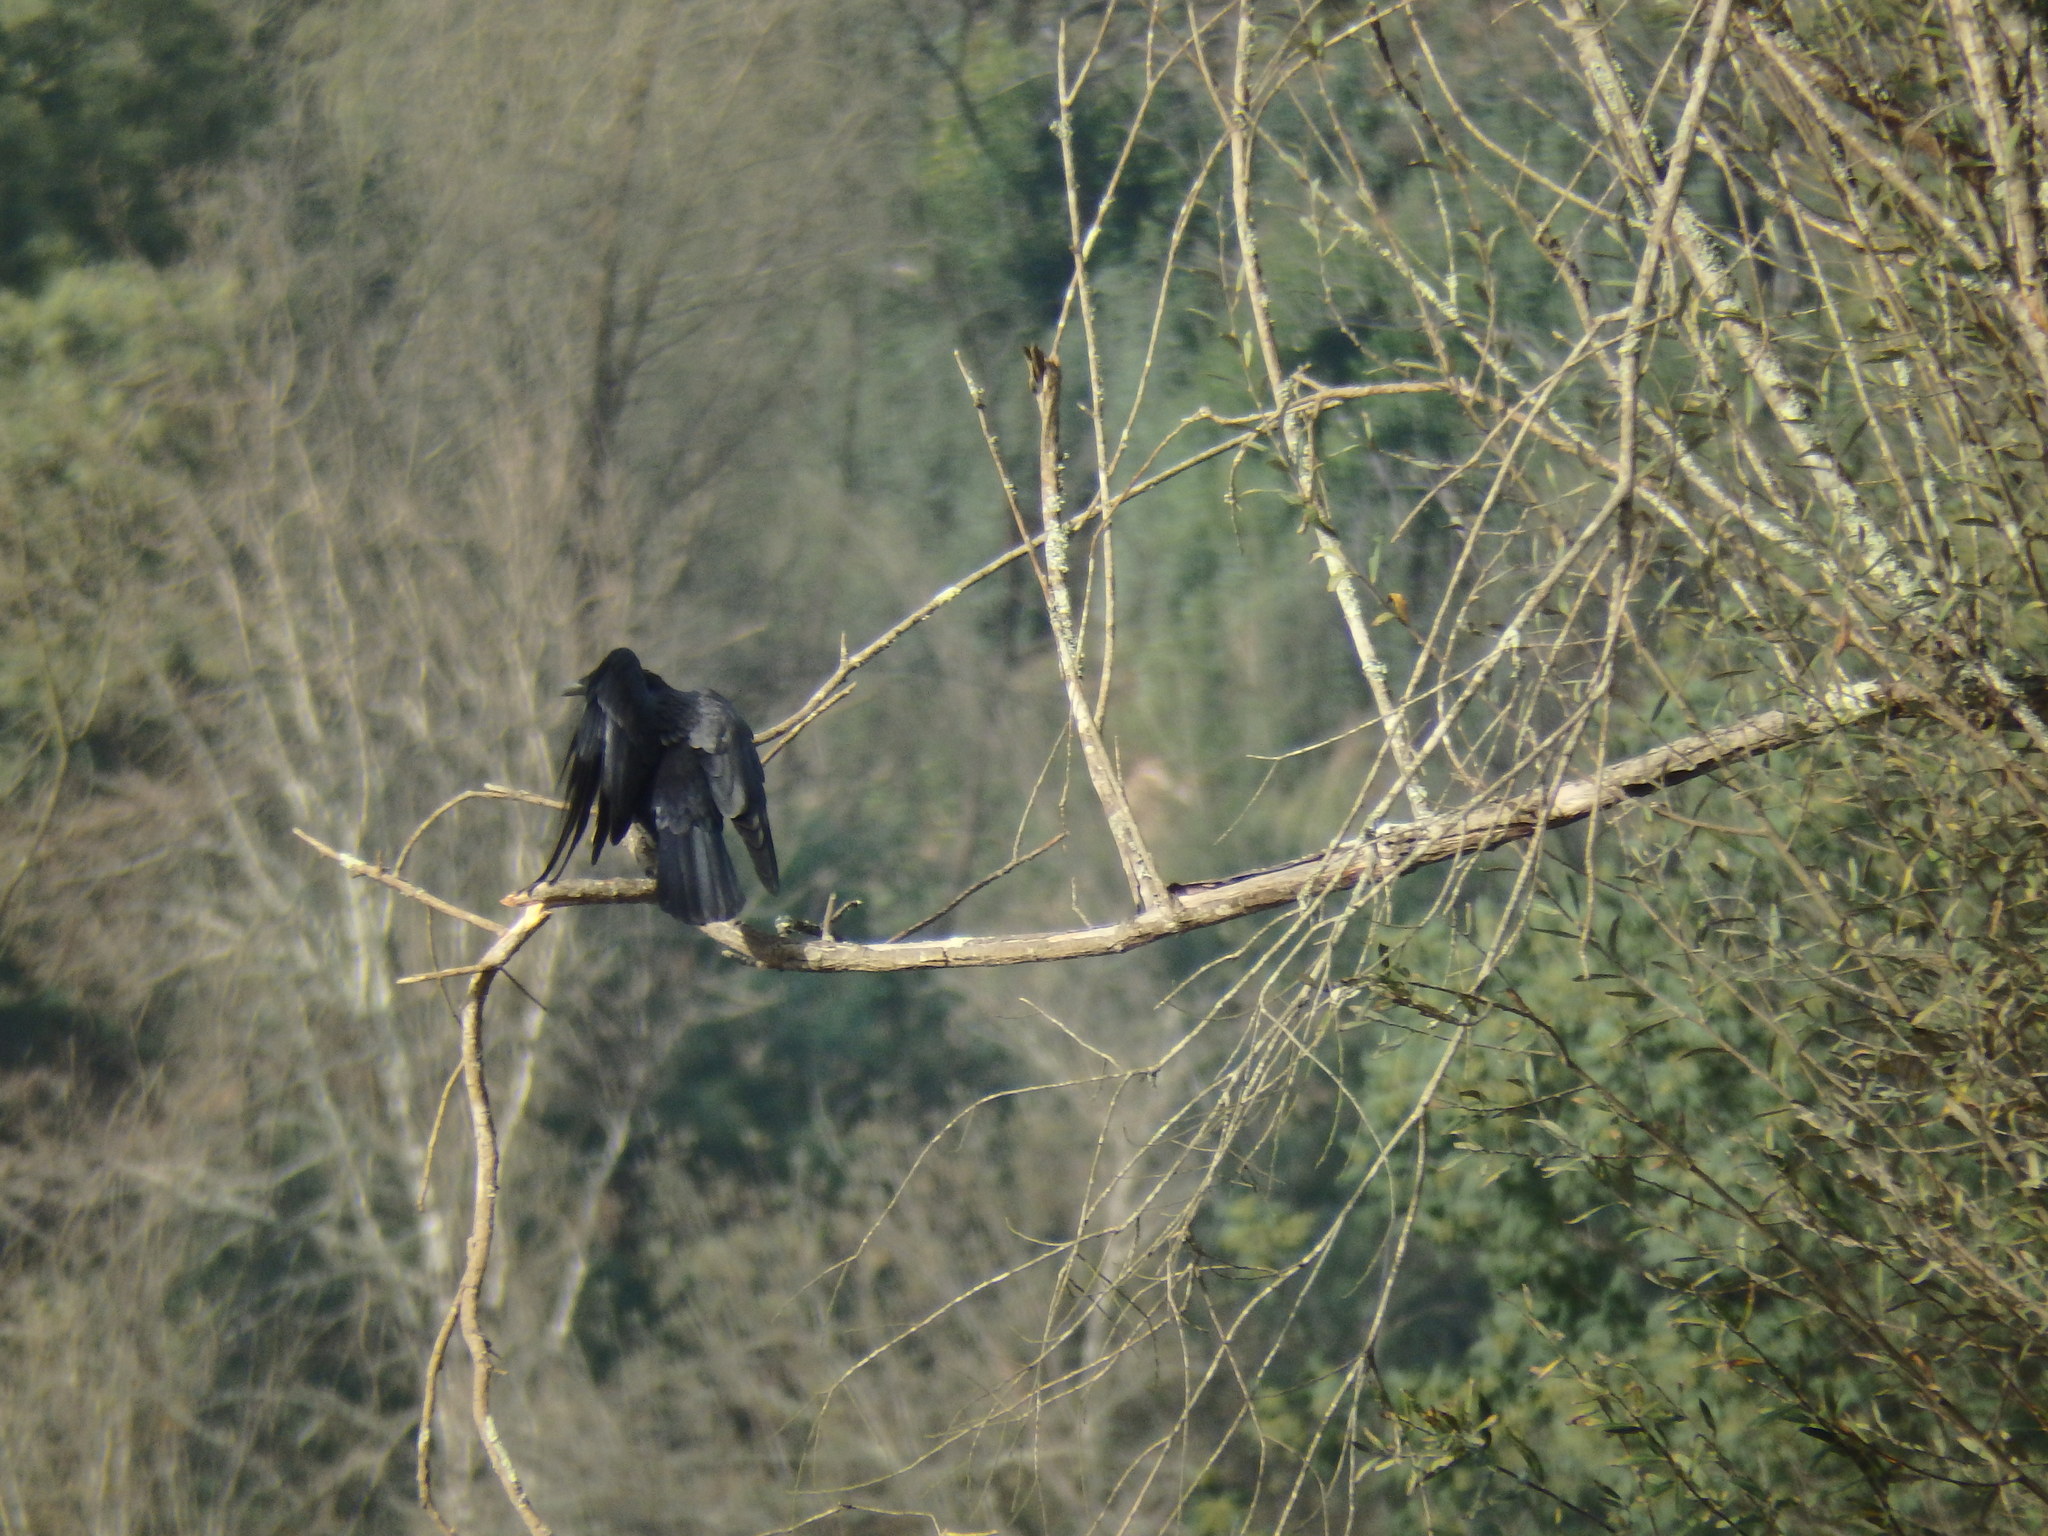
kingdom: Animalia
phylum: Chordata
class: Aves
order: Passeriformes
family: Corvidae
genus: Corvus
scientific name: Corvus corone
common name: Carrion crow
